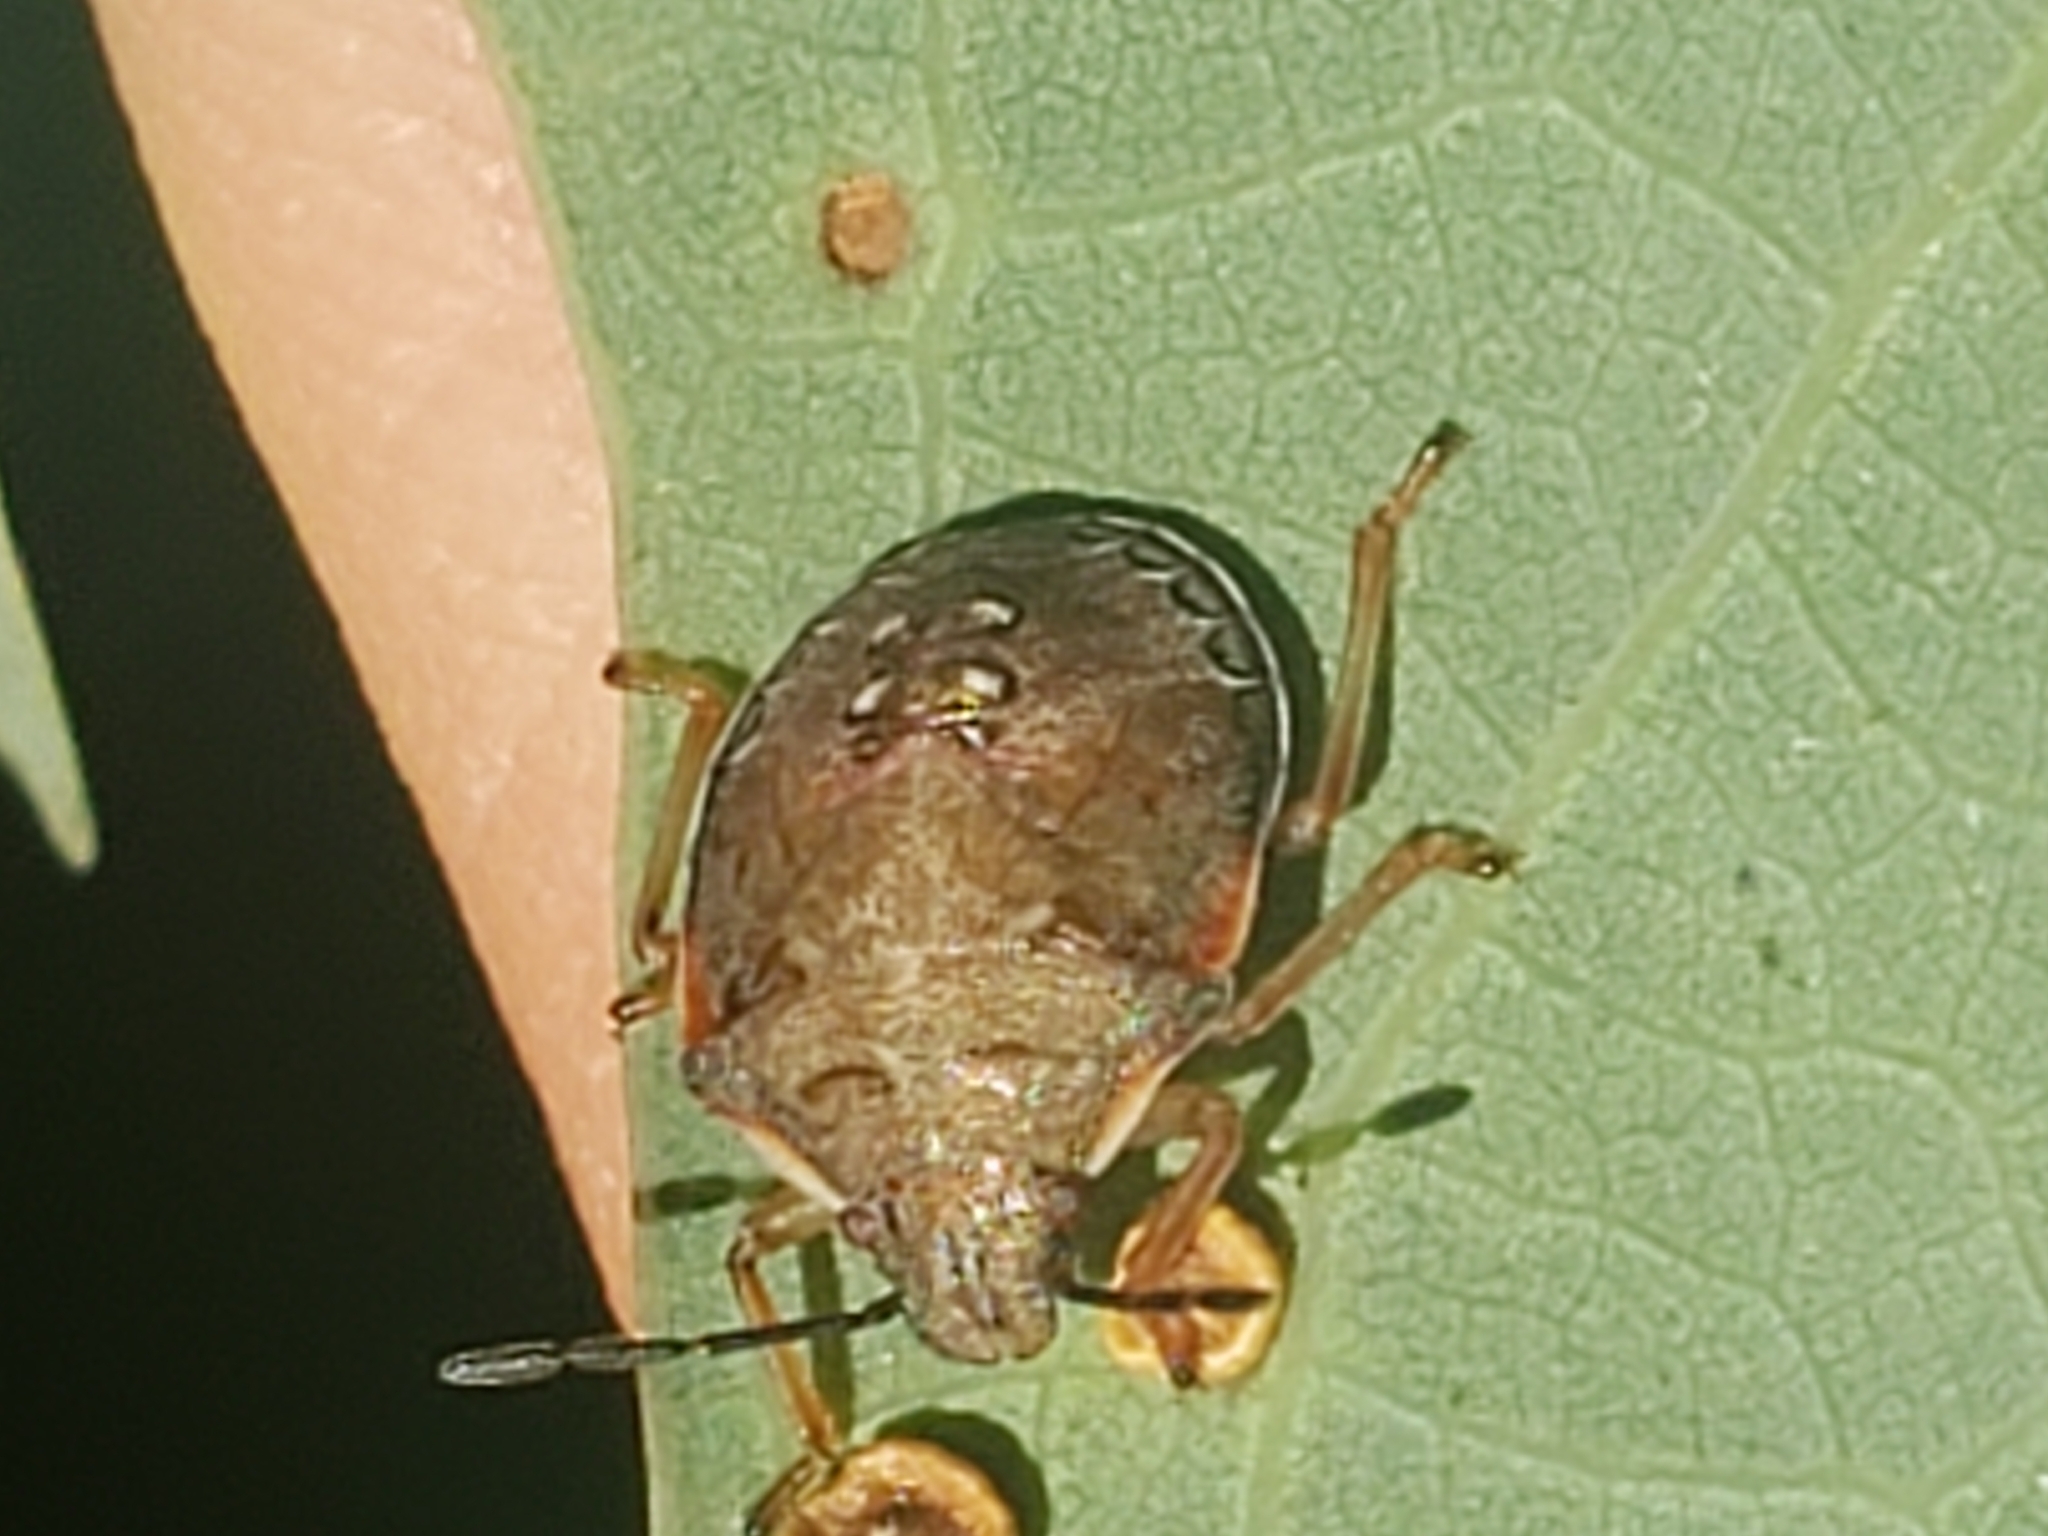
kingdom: Animalia
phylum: Arthropoda
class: Insecta
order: Hemiptera
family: Pentatomidae
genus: Podisus
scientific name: Podisus maculiventris
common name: Spined soldier bug
